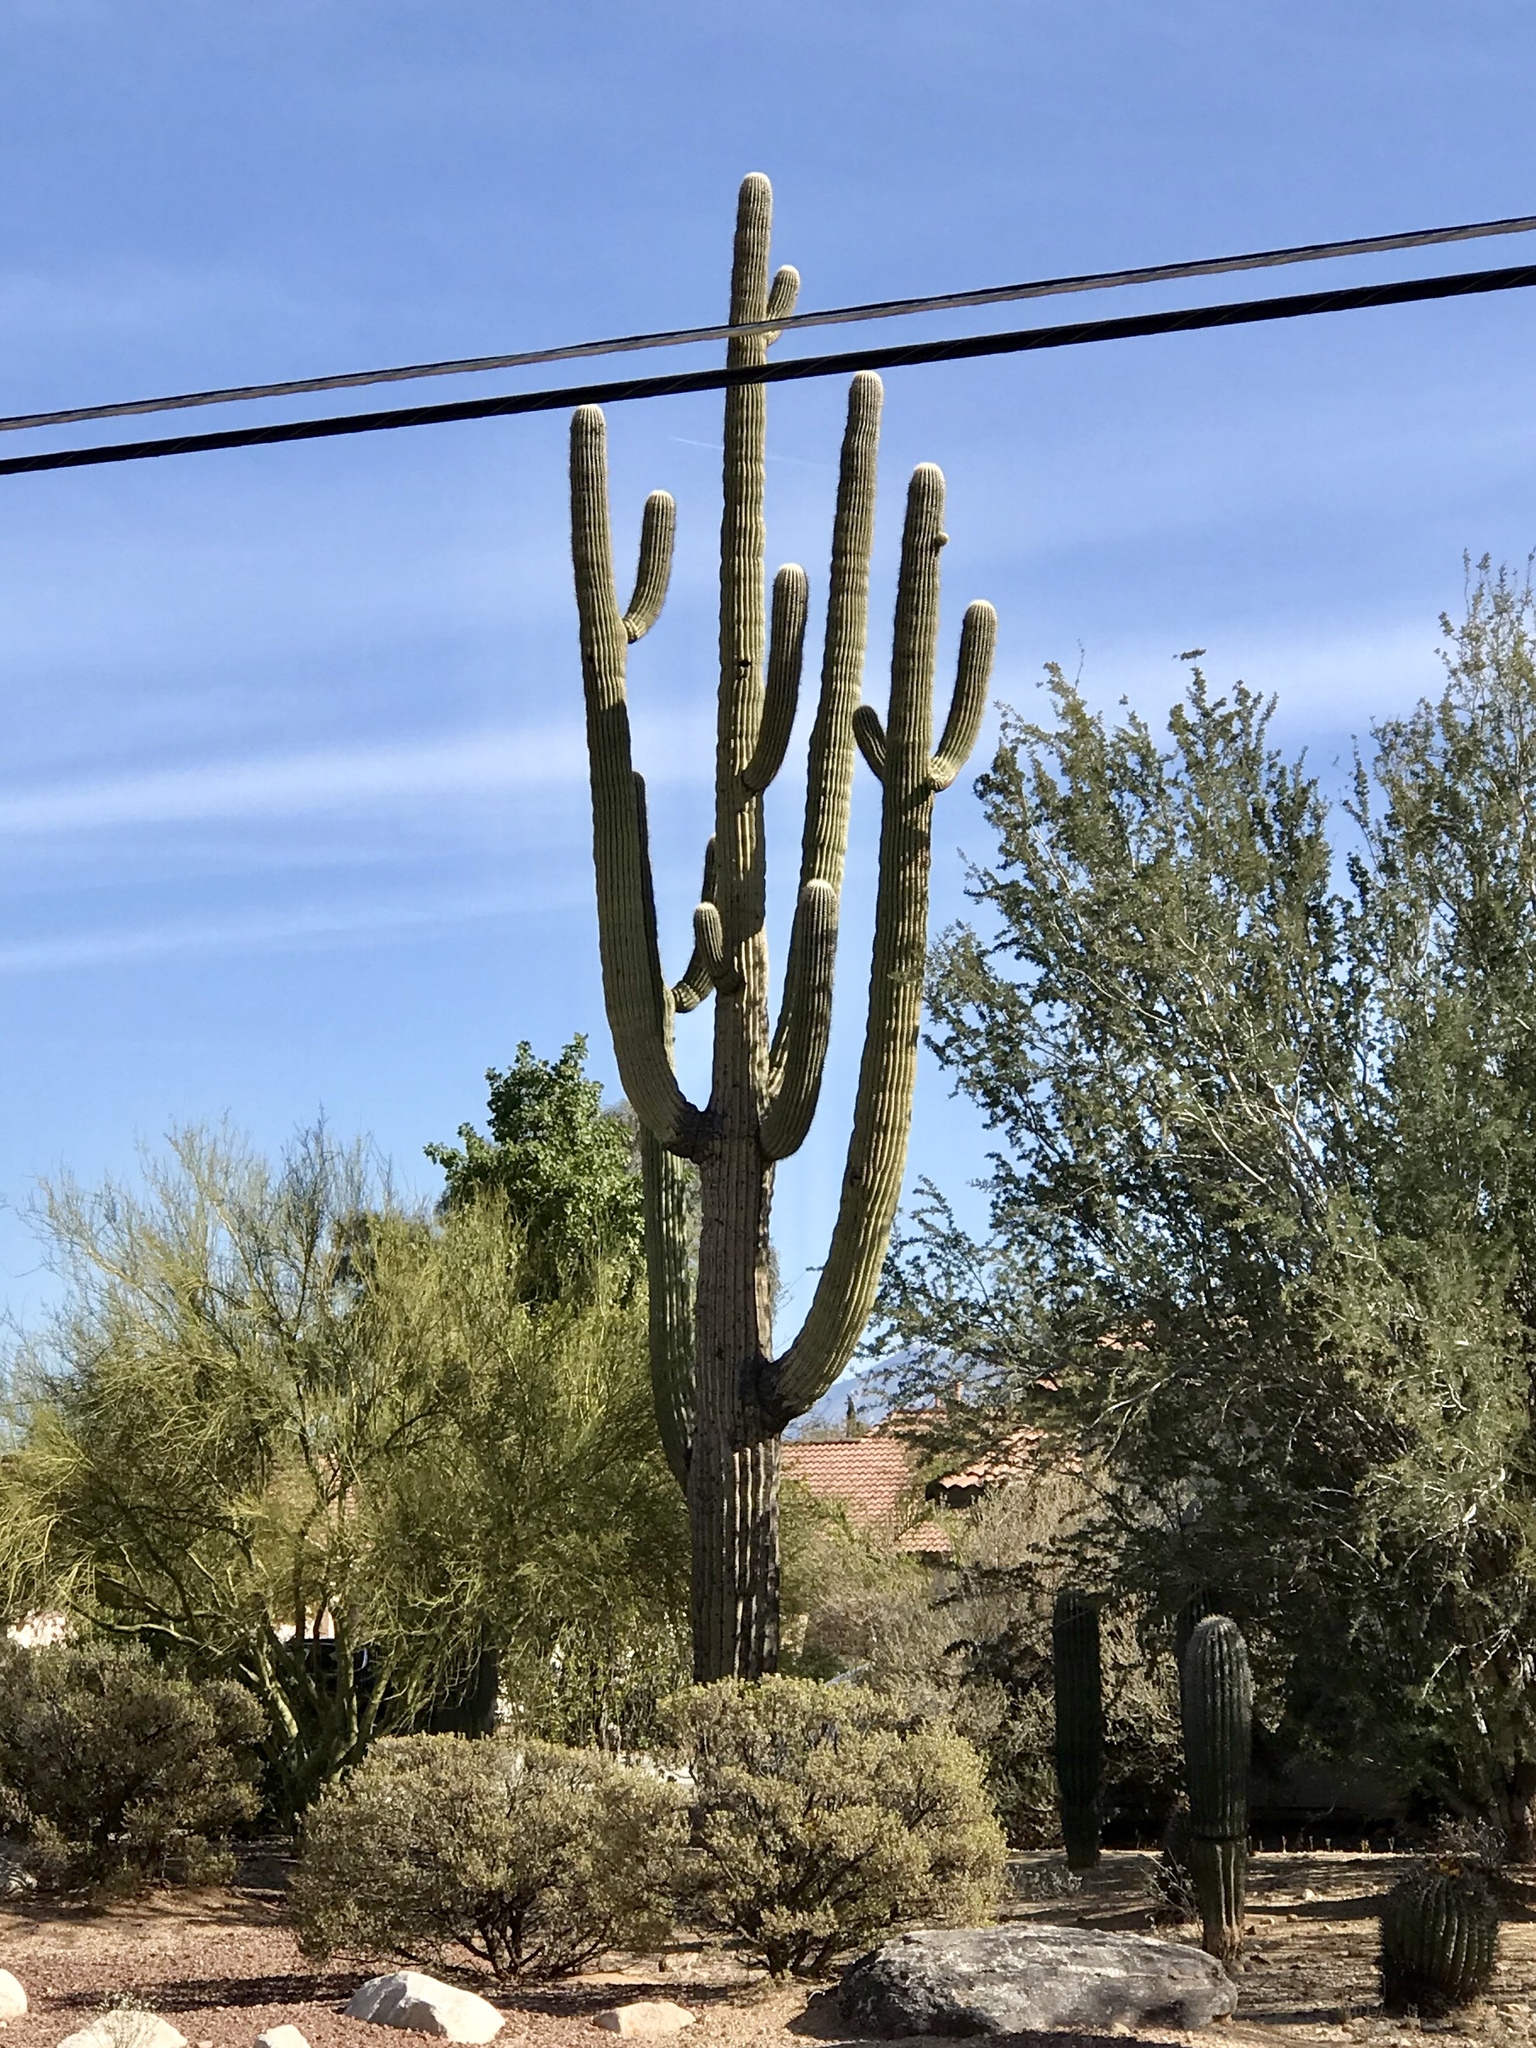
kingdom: Plantae
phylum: Tracheophyta
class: Magnoliopsida
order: Caryophyllales
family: Cactaceae
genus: Carnegiea
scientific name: Carnegiea gigantea
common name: Saguaro
